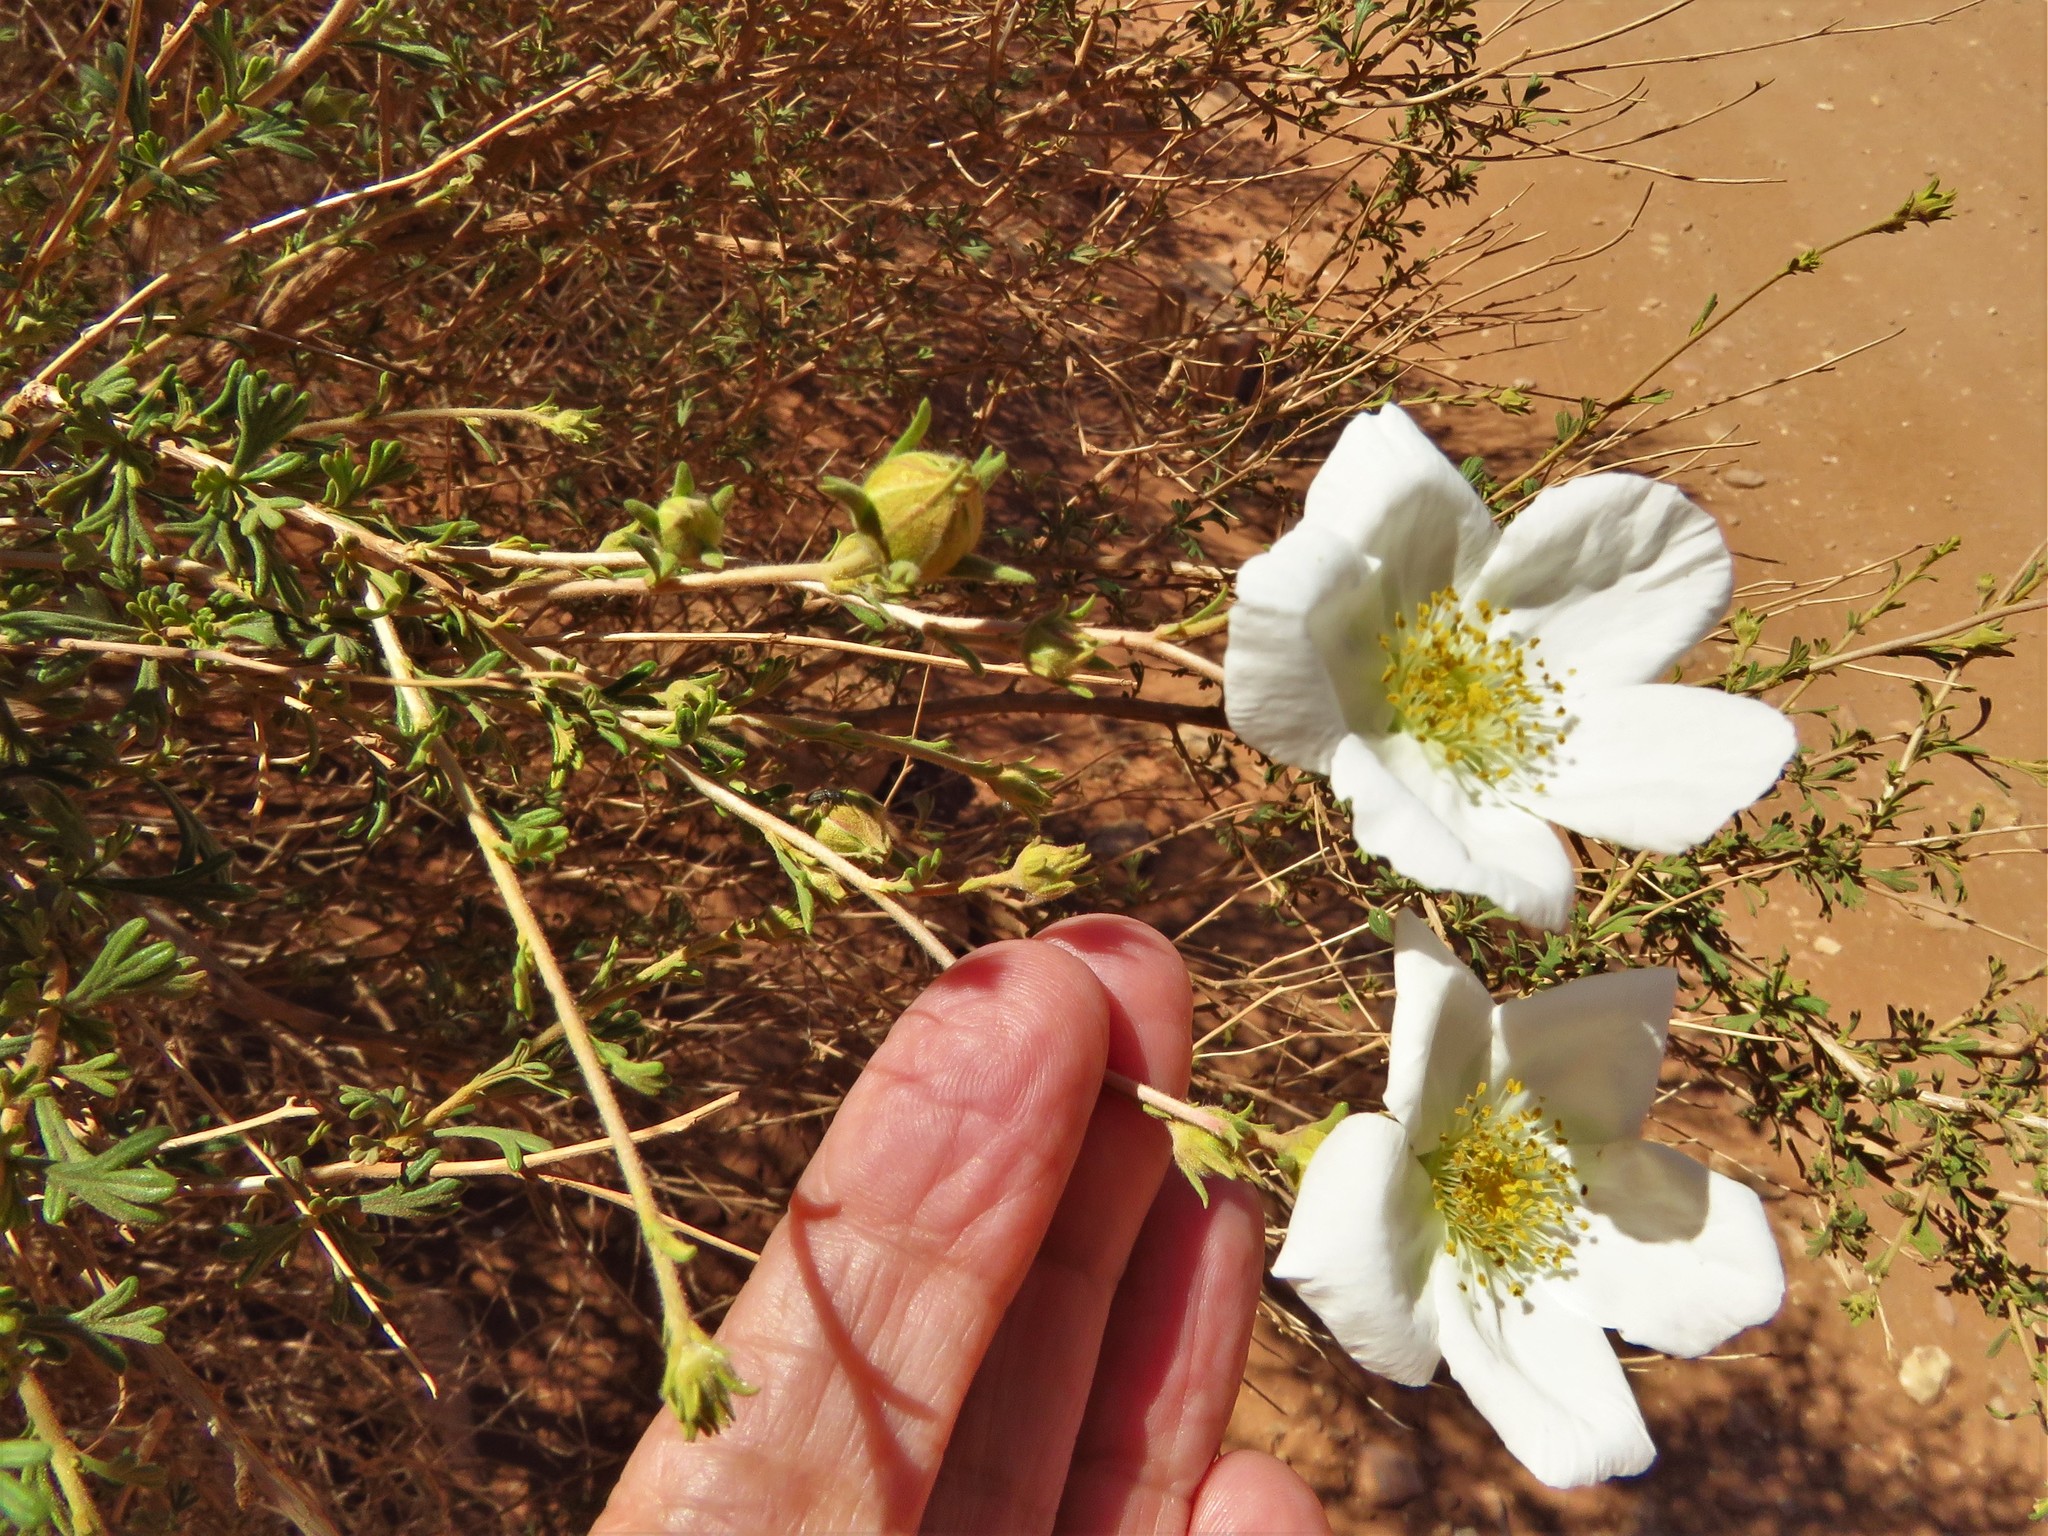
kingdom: Plantae
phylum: Tracheophyta
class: Magnoliopsida
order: Rosales
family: Rosaceae
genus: Fallugia
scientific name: Fallugia paradoxa
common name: Apache-plume
